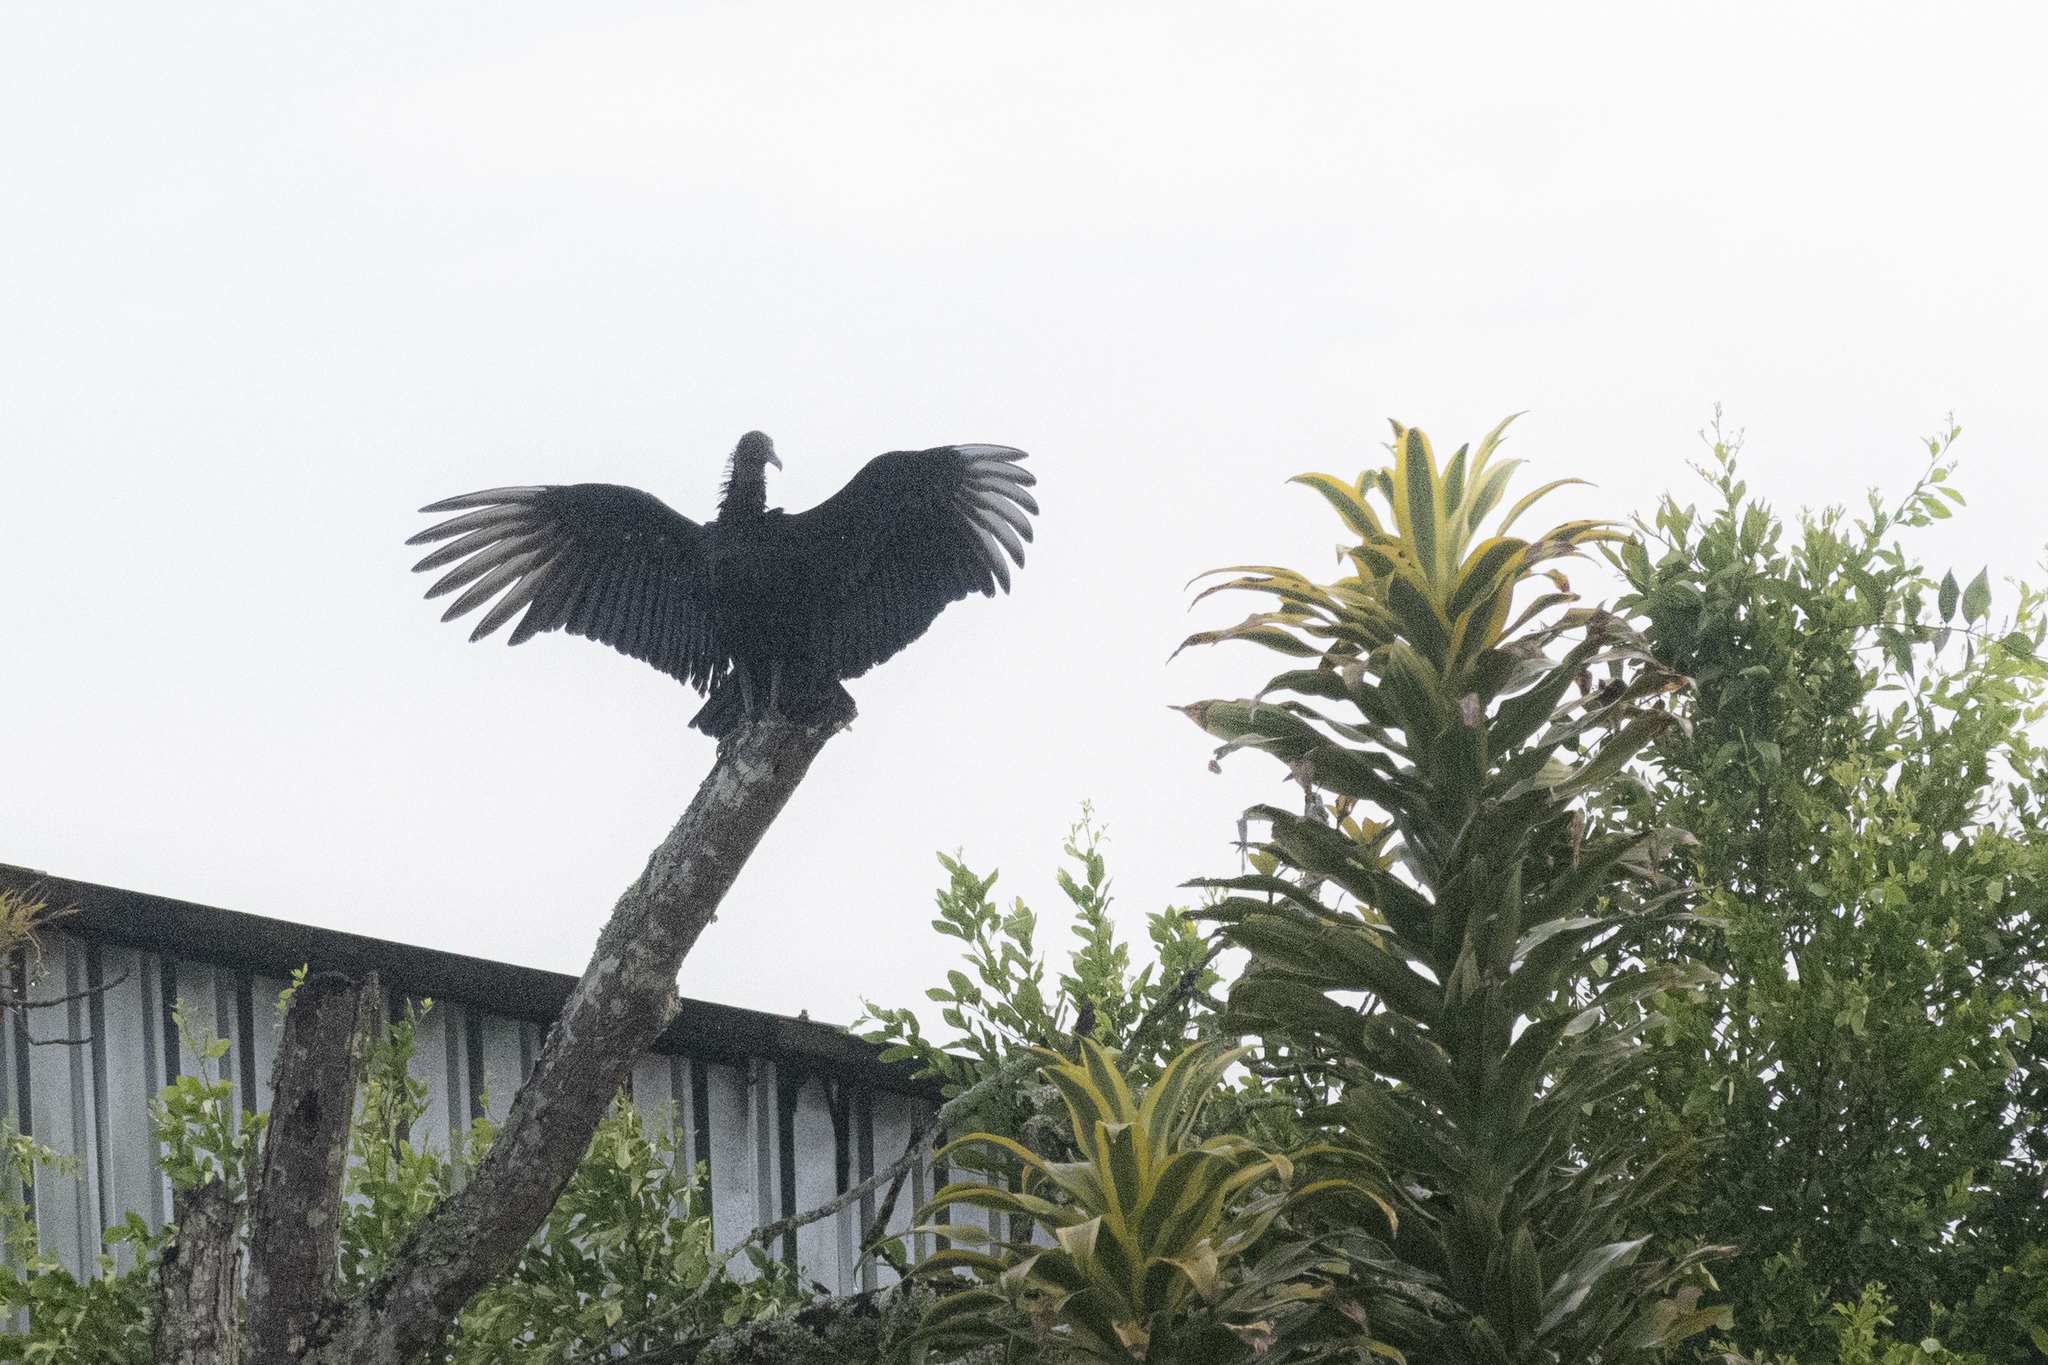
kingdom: Animalia
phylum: Chordata
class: Aves
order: Accipitriformes
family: Cathartidae
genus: Coragyps
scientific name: Coragyps atratus
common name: Black vulture
